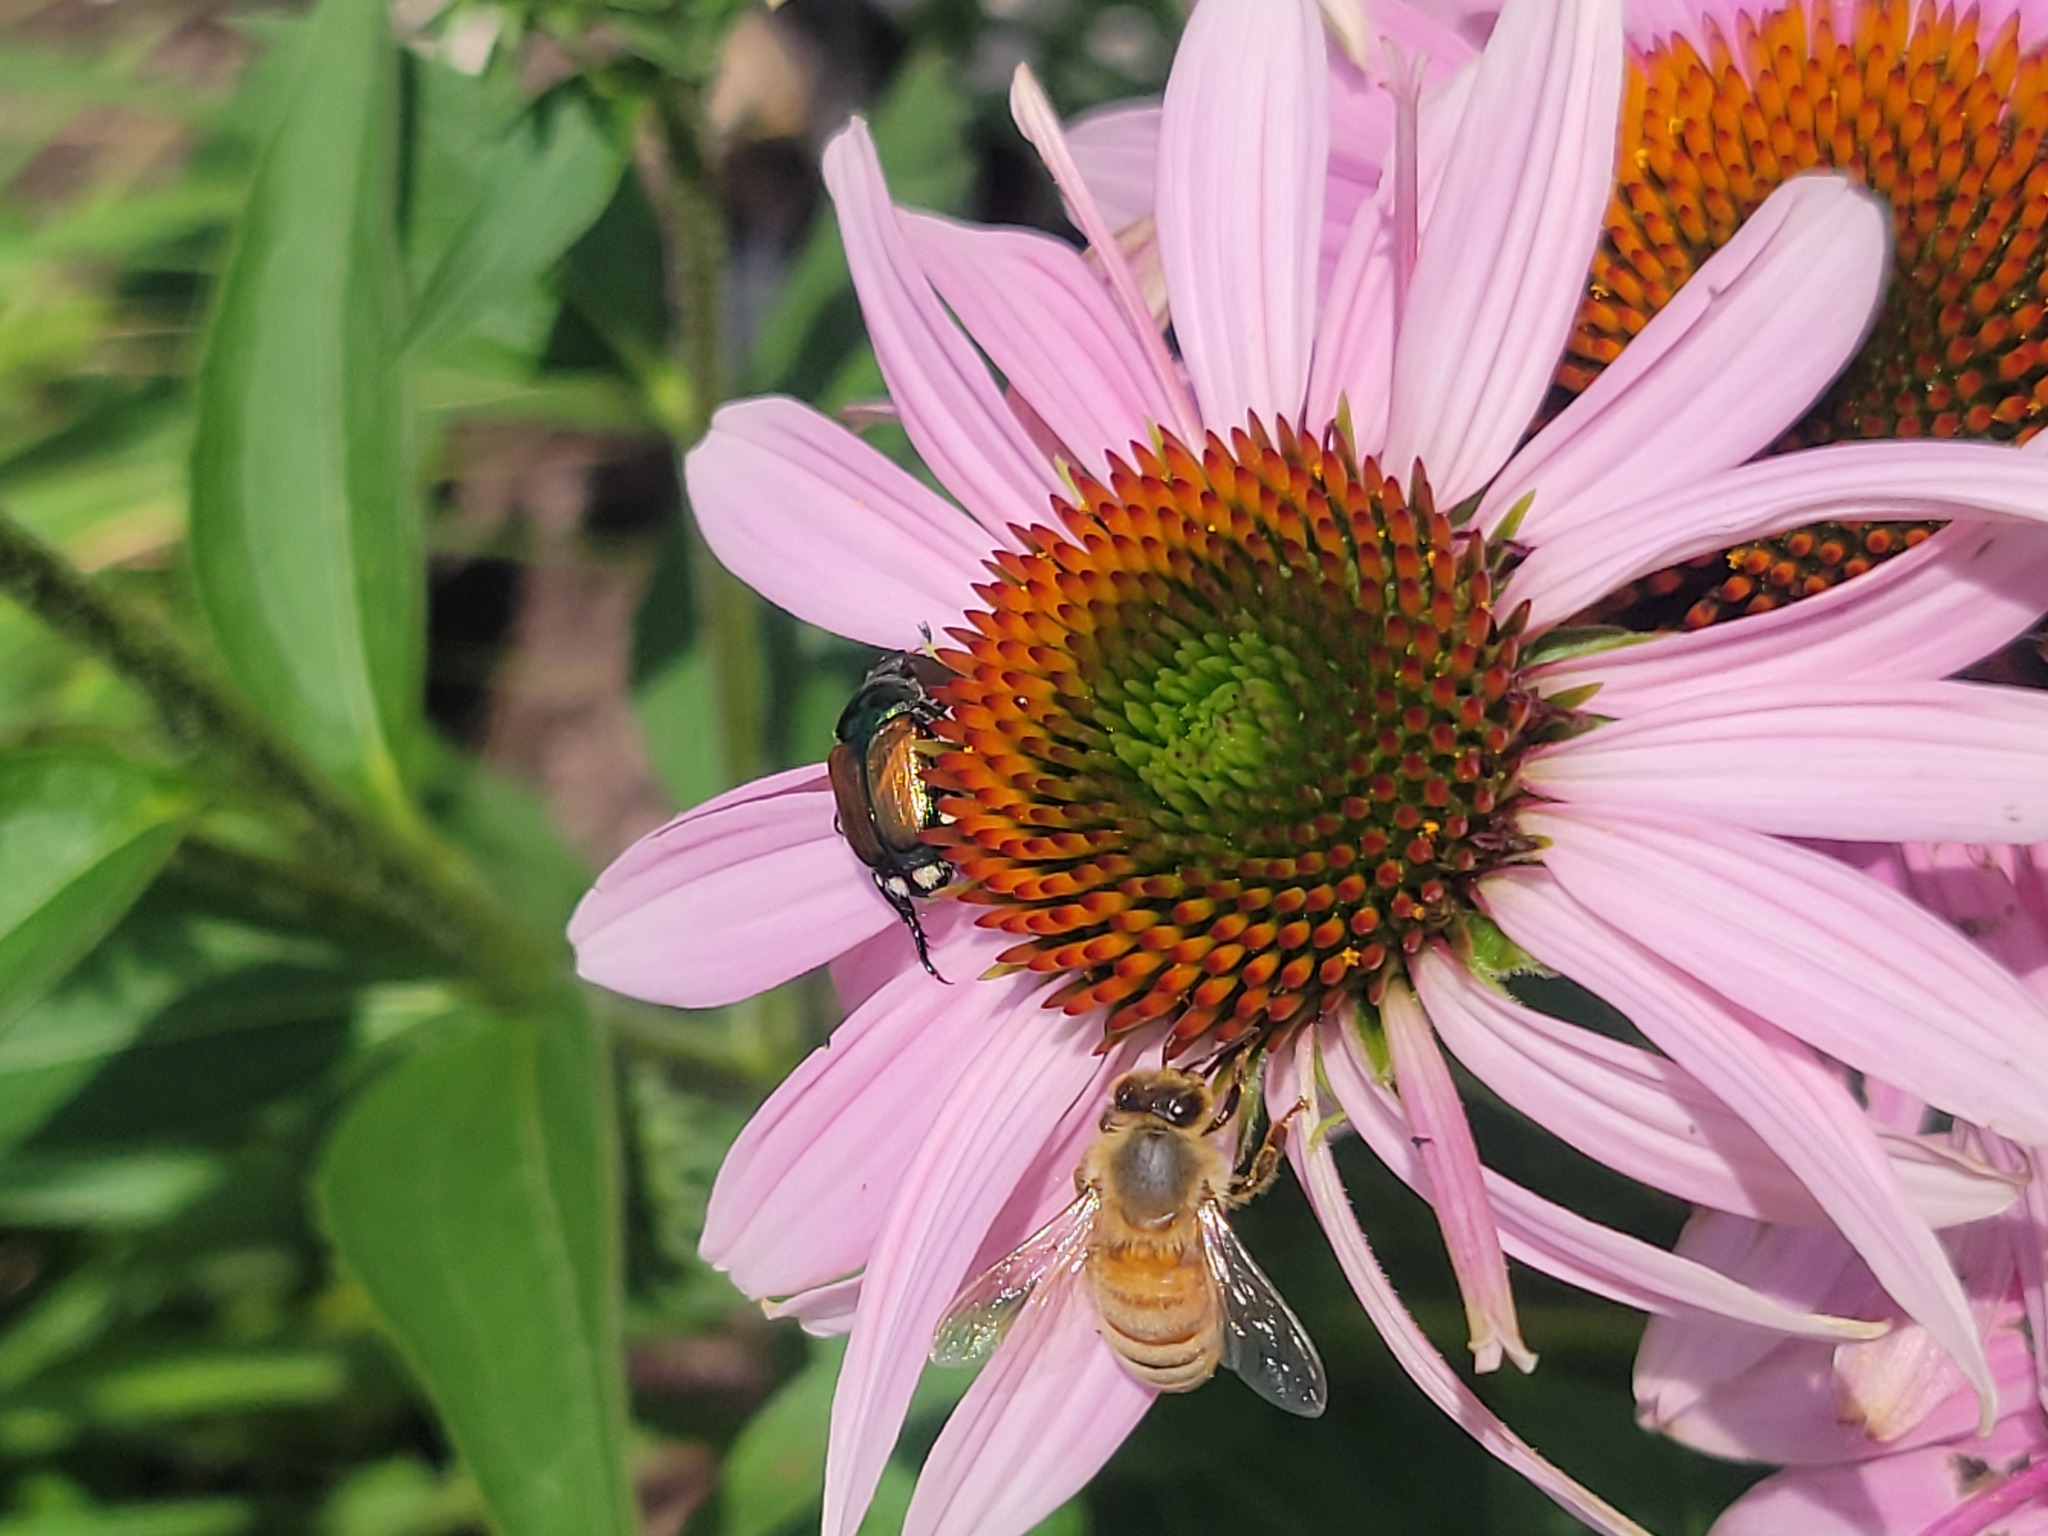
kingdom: Animalia
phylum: Arthropoda
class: Insecta
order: Hymenoptera
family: Apidae
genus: Apis
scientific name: Apis mellifera
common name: Honey bee
